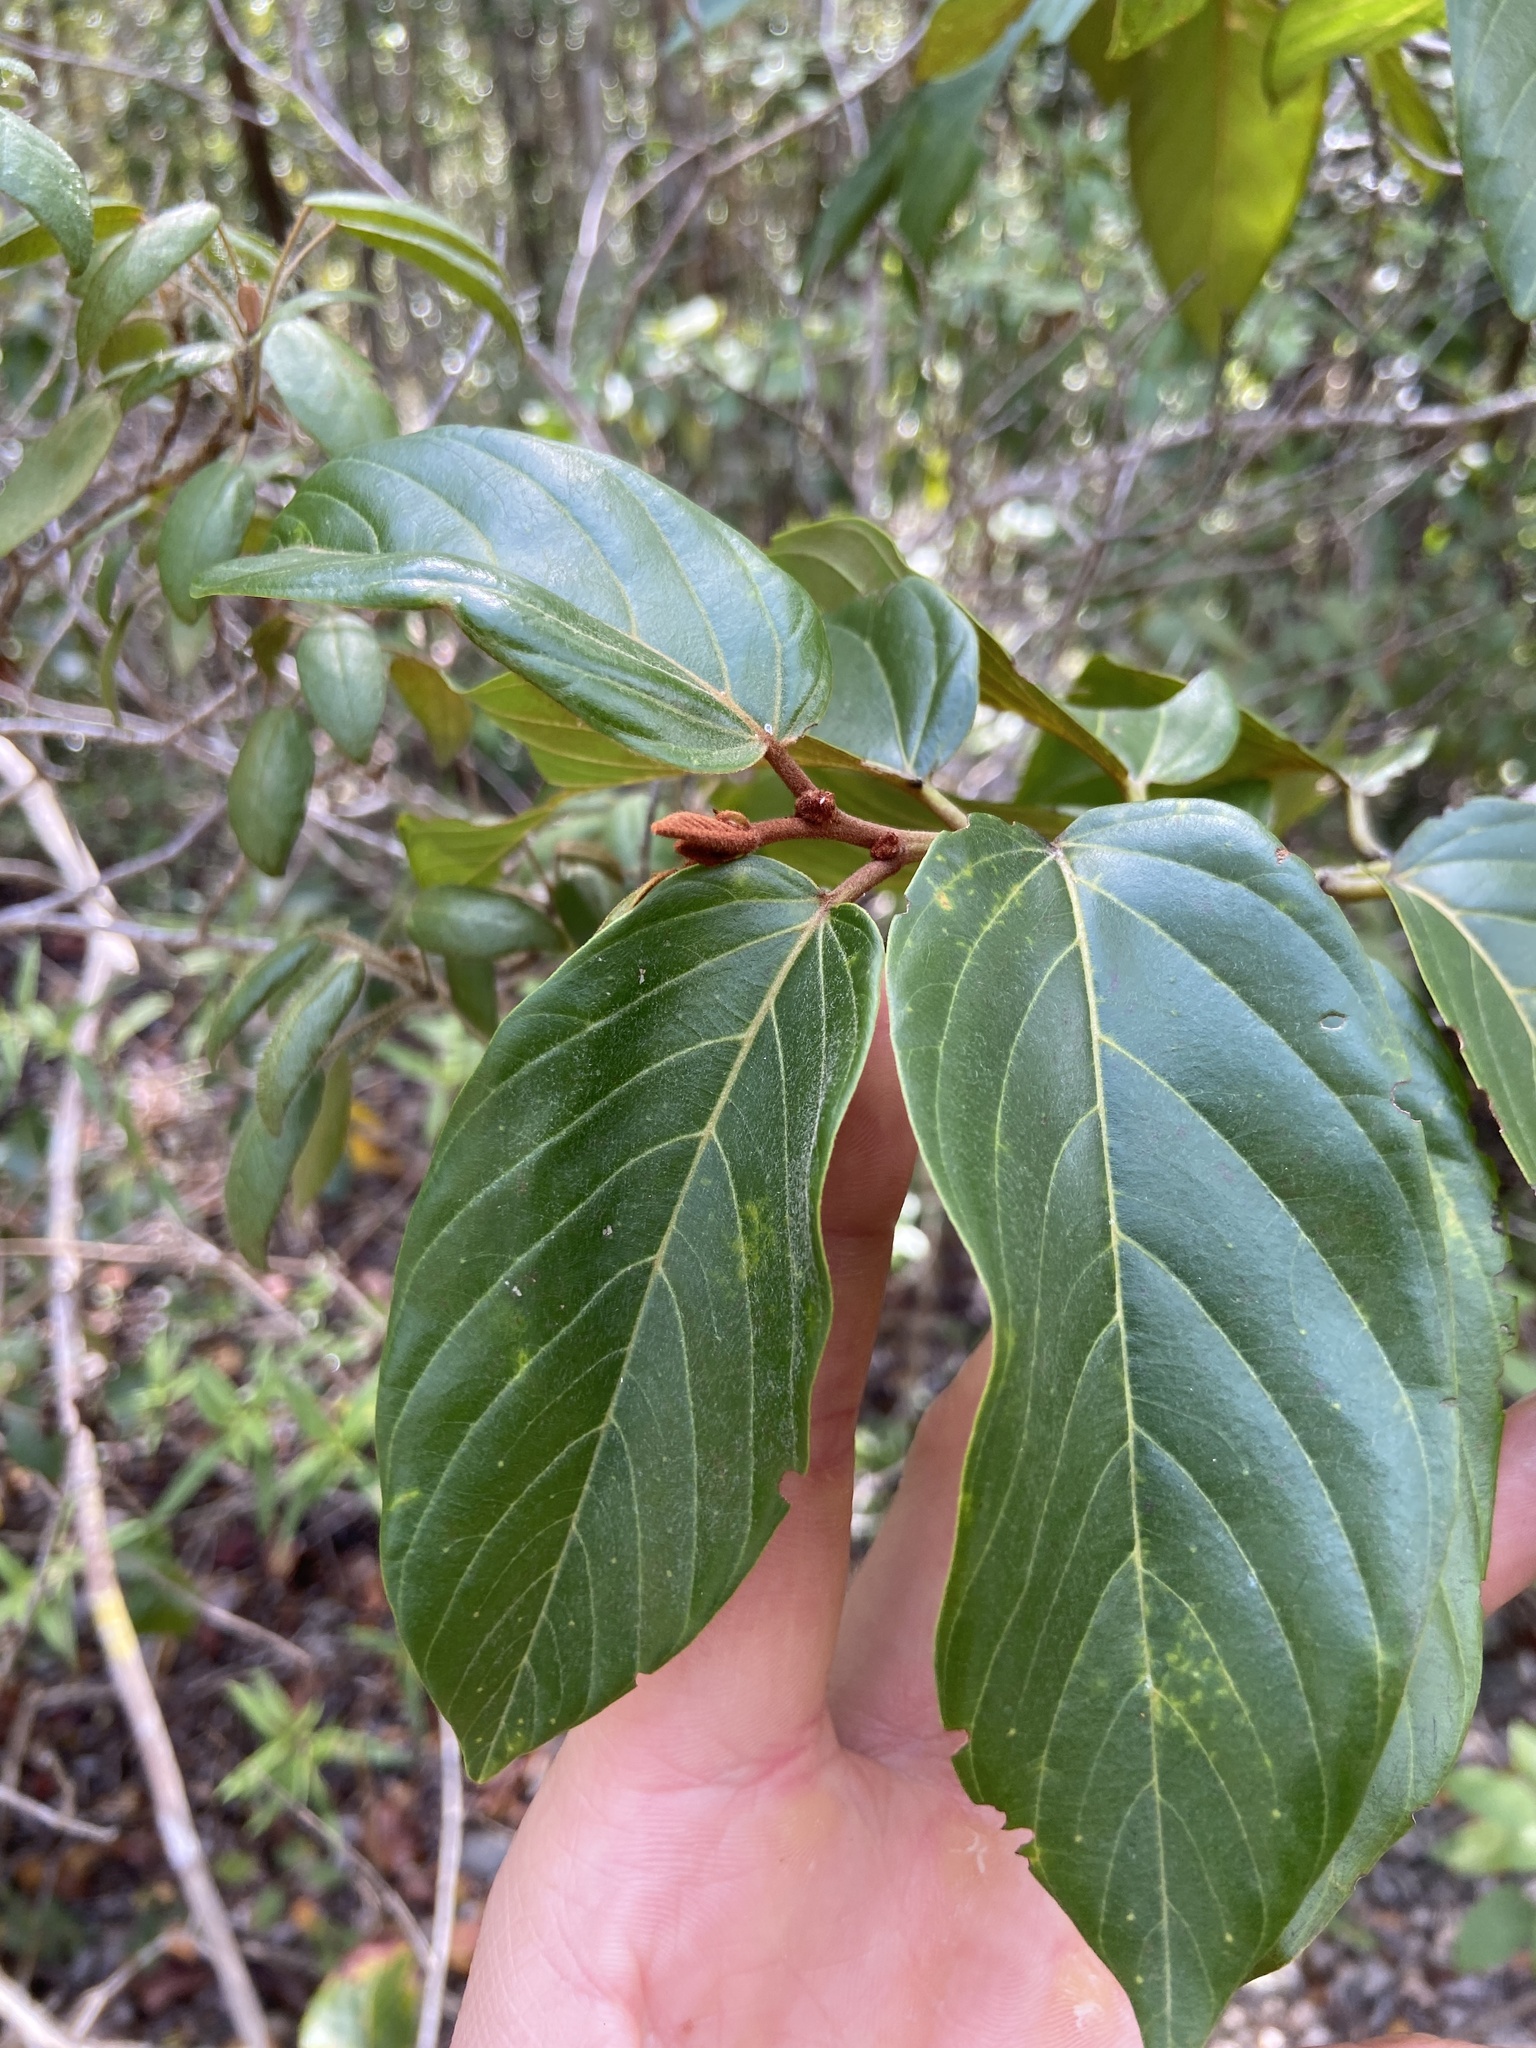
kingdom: Plantae
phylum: Tracheophyta
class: Magnoliopsida
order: Rosales
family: Rhamnaceae
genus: Colubrina
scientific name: Colubrina arborescens
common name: Wild coffee
